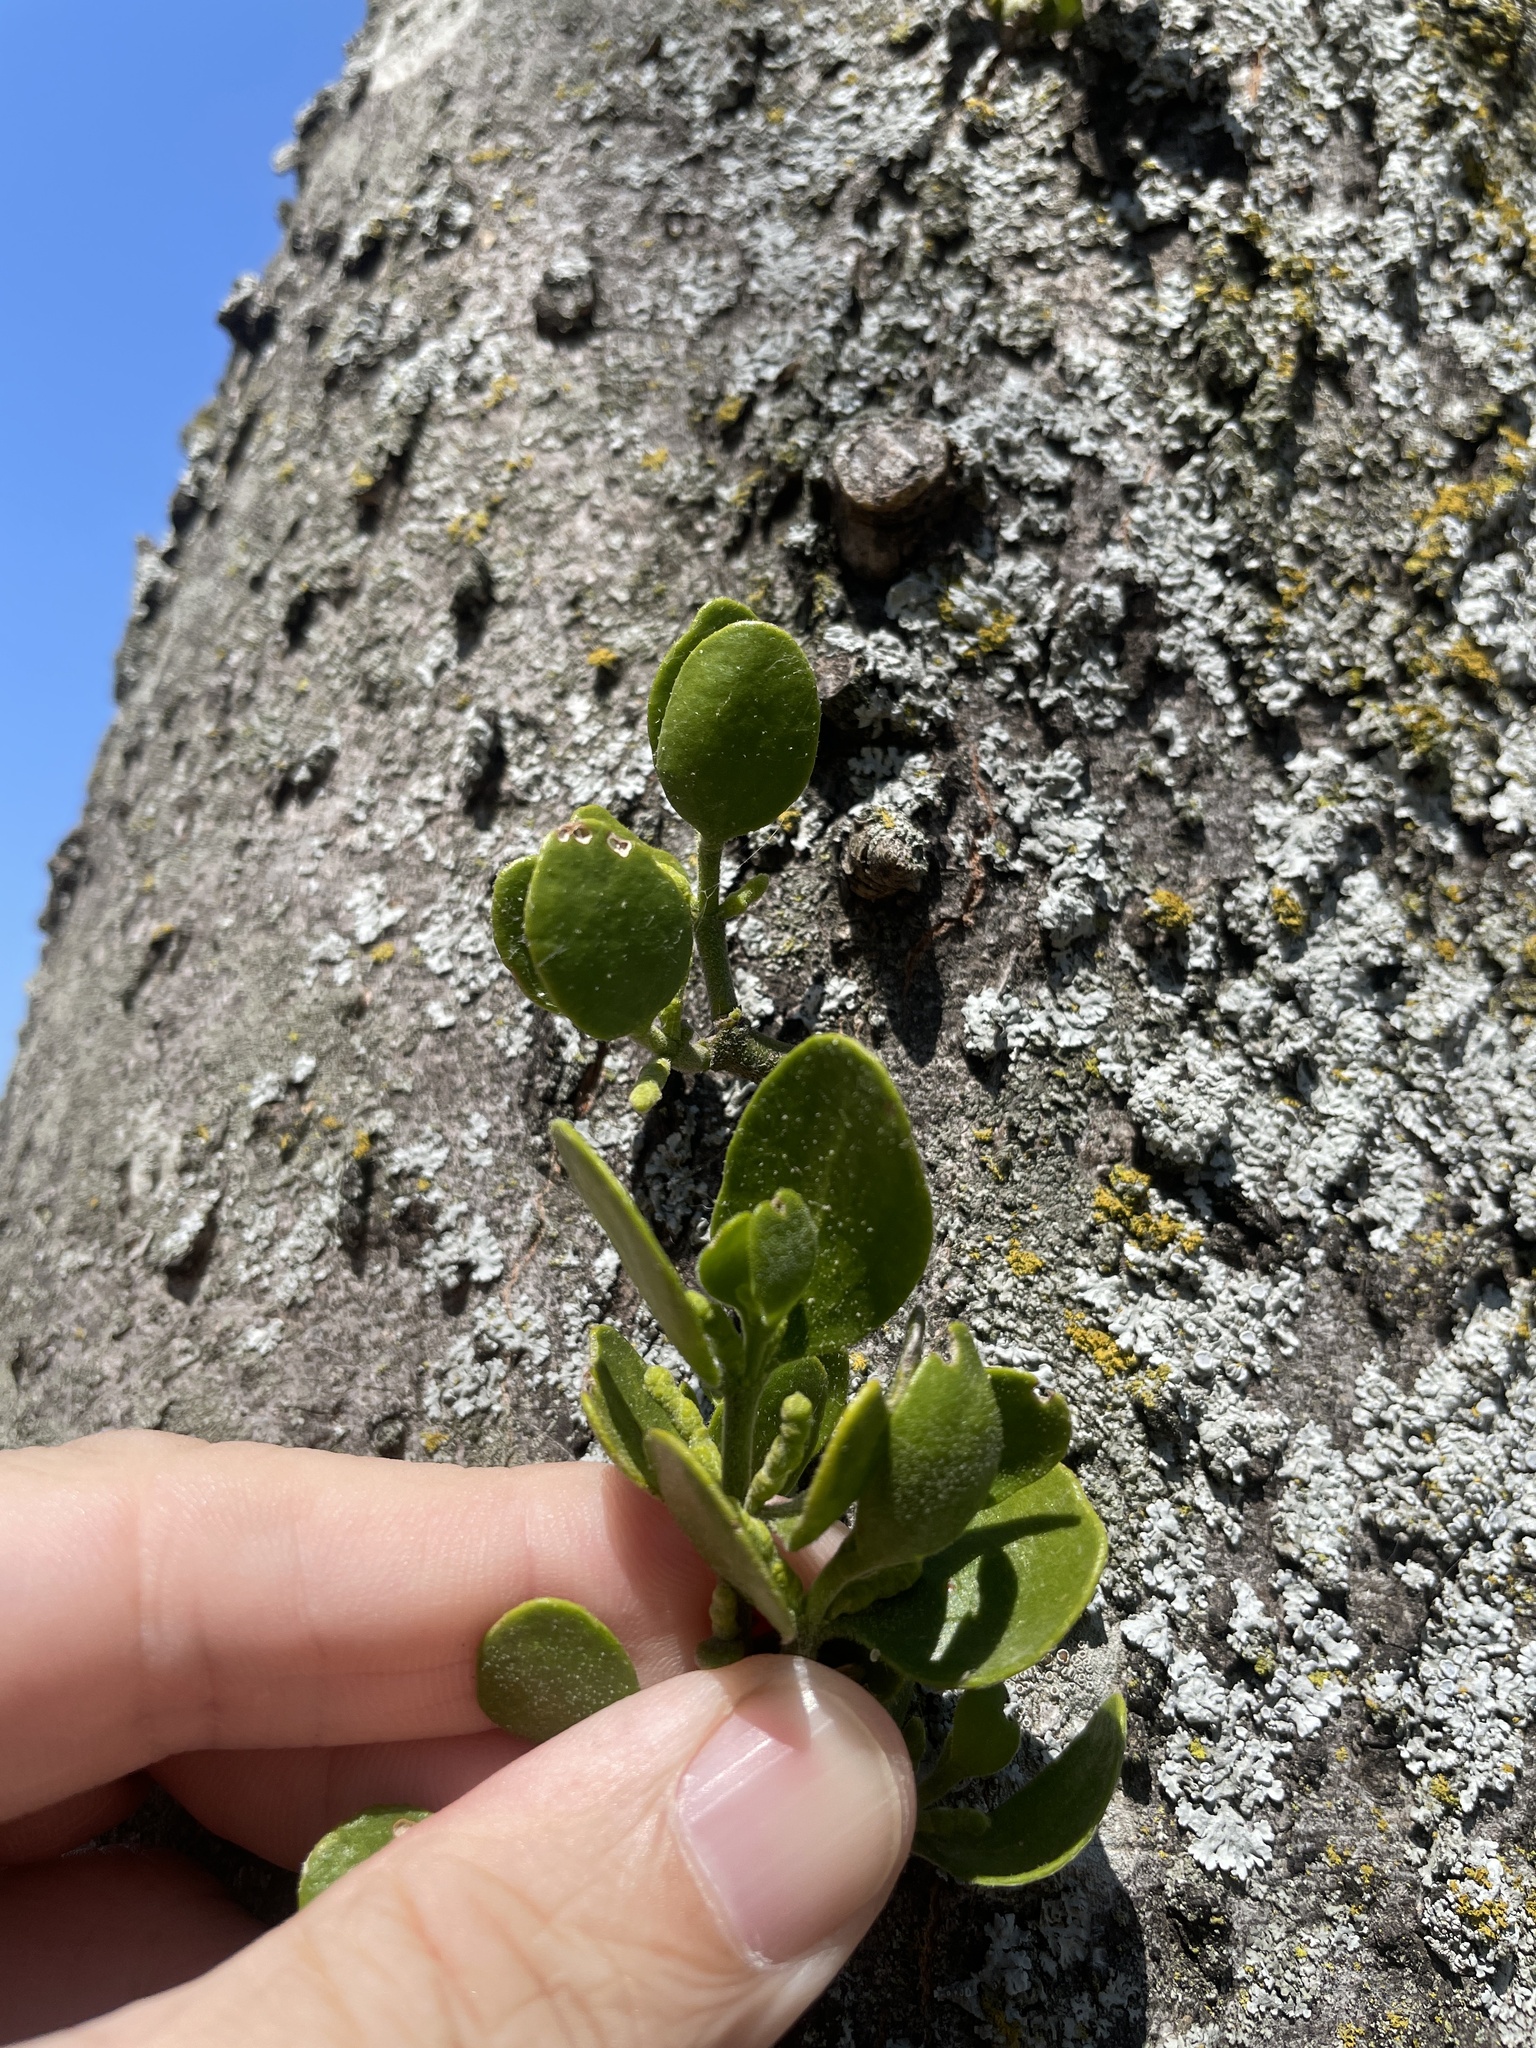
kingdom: Plantae
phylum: Tracheophyta
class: Magnoliopsida
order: Santalales
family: Viscaceae
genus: Phoradendron
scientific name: Phoradendron leucarpum
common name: Pacific mistletoe
